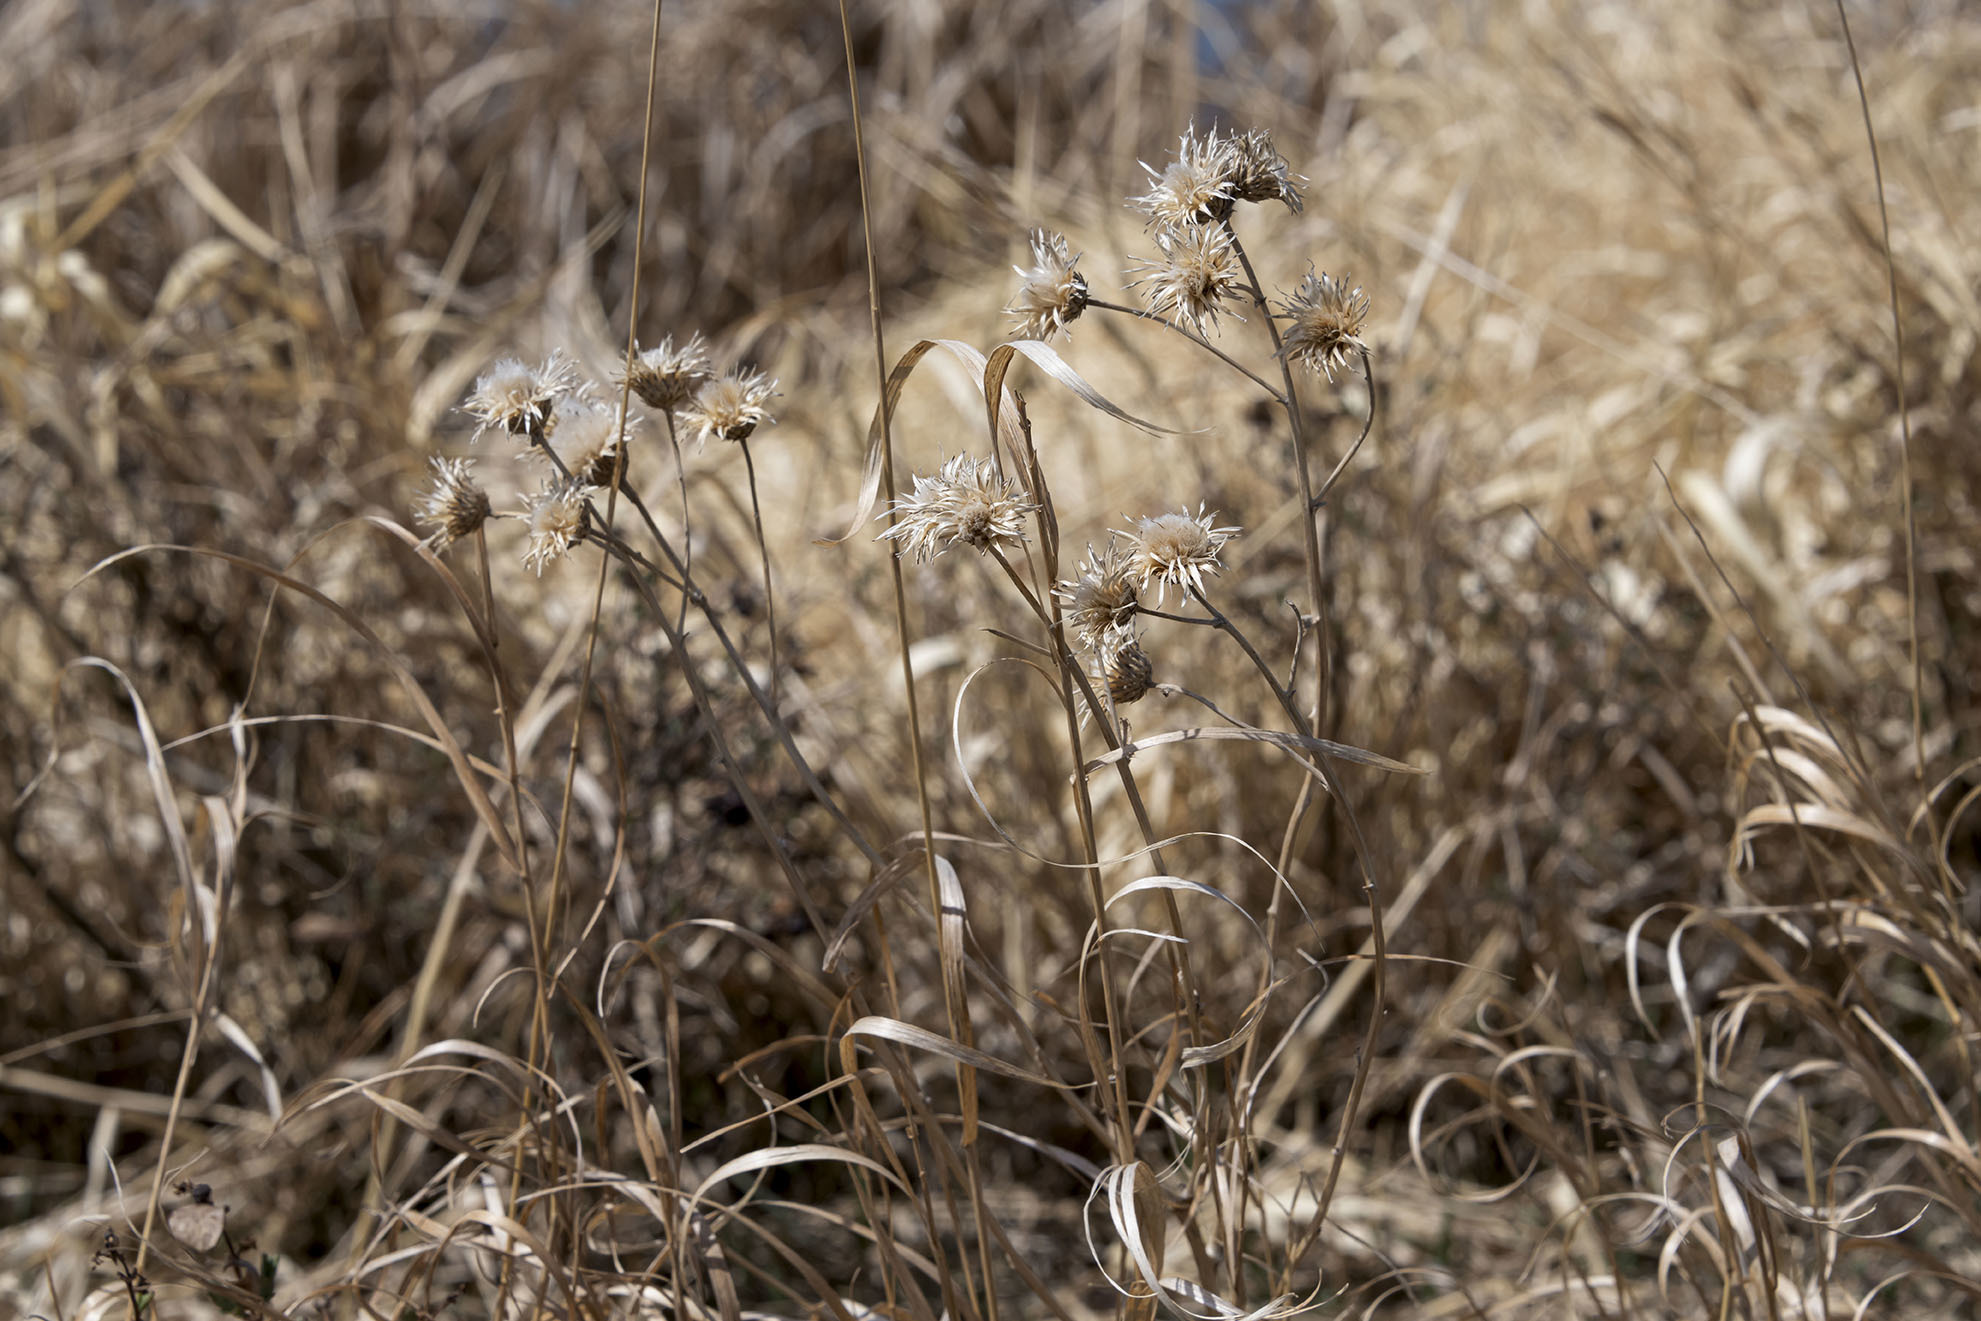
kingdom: Plantae
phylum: Tracheophyta
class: Magnoliopsida
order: Asterales
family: Asteraceae
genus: Cirsium
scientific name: Cirsium vulgare
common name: Bull thistle
